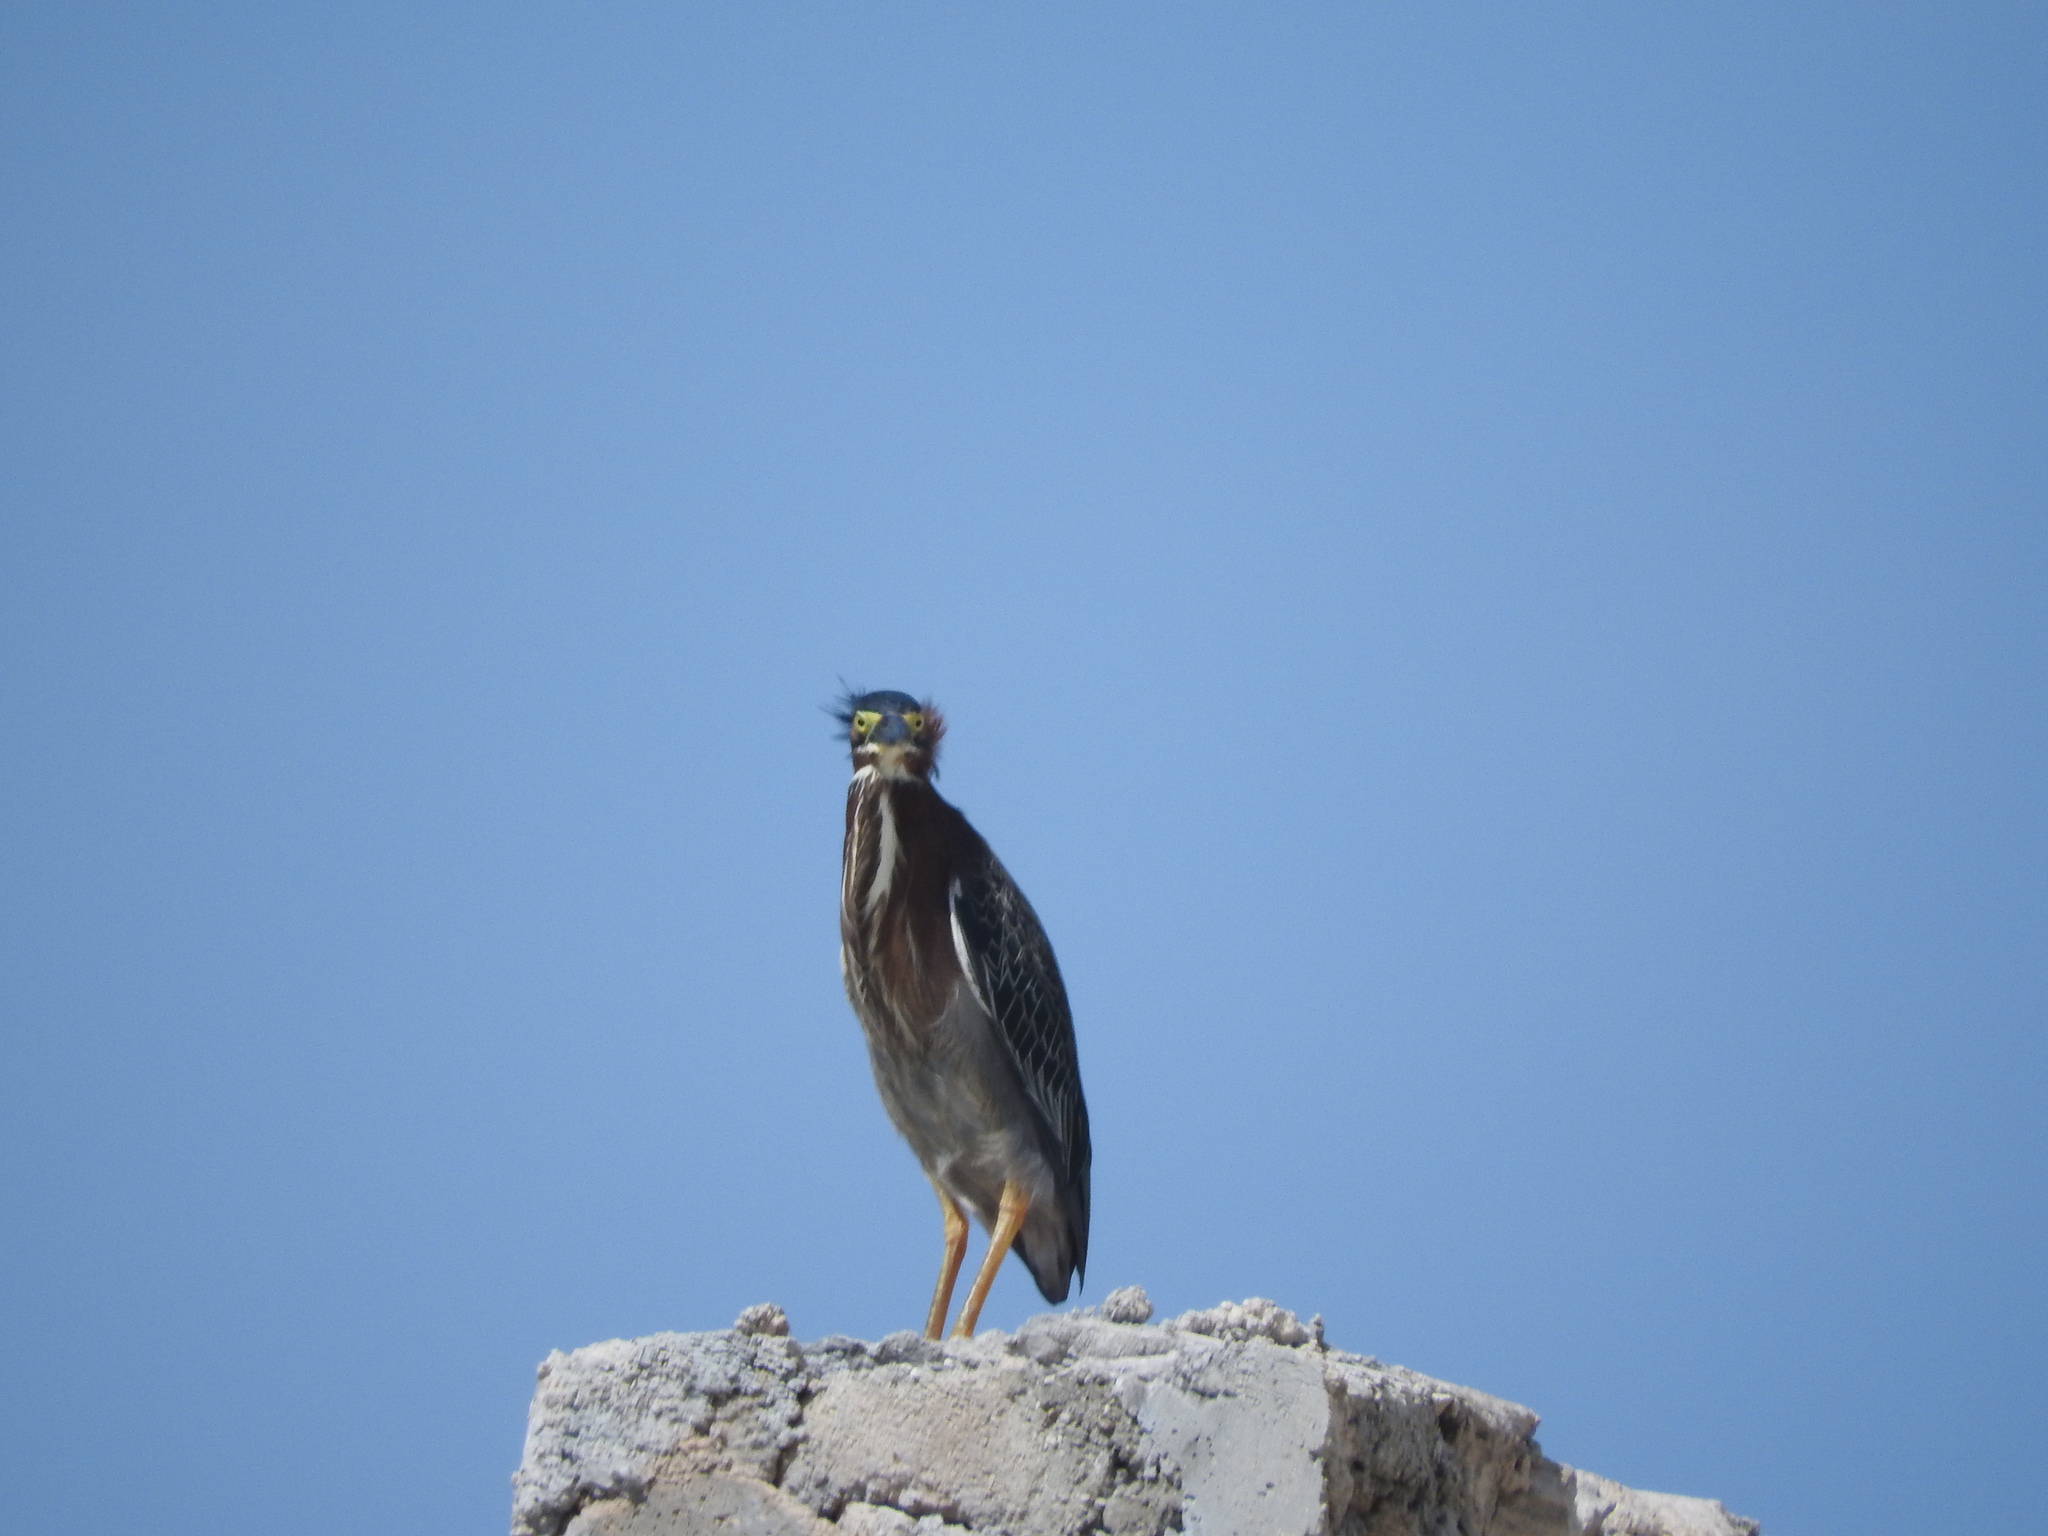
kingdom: Animalia
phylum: Chordata
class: Aves
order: Pelecaniformes
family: Ardeidae
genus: Butorides
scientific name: Butorides virescens
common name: Green heron
